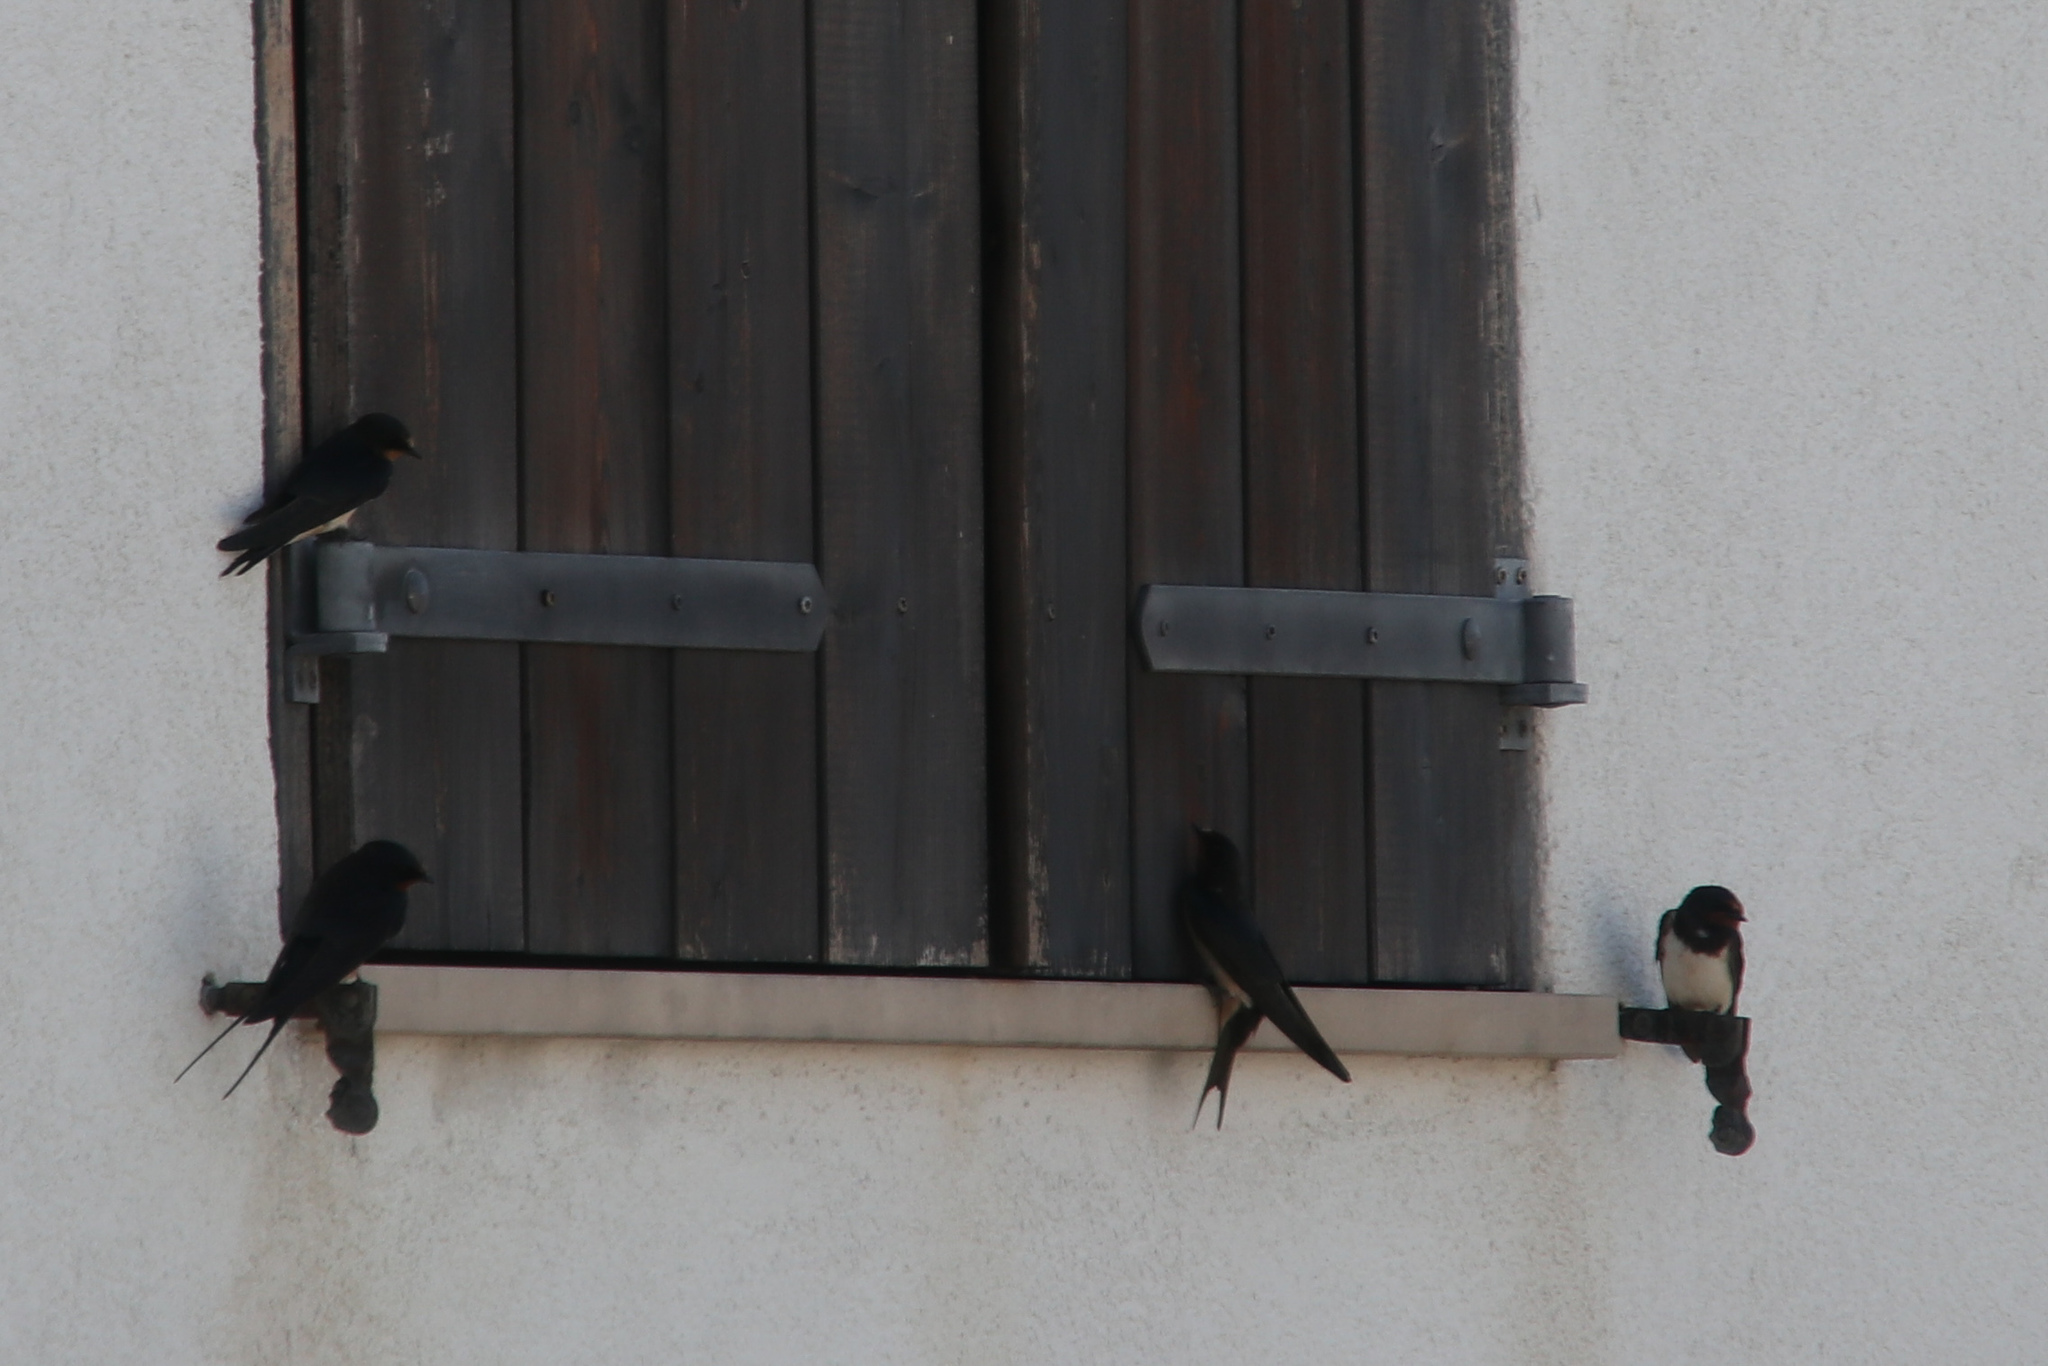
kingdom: Animalia
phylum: Chordata
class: Aves
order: Passeriformes
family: Hirundinidae
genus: Hirundo
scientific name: Hirundo rustica
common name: Barn swallow
